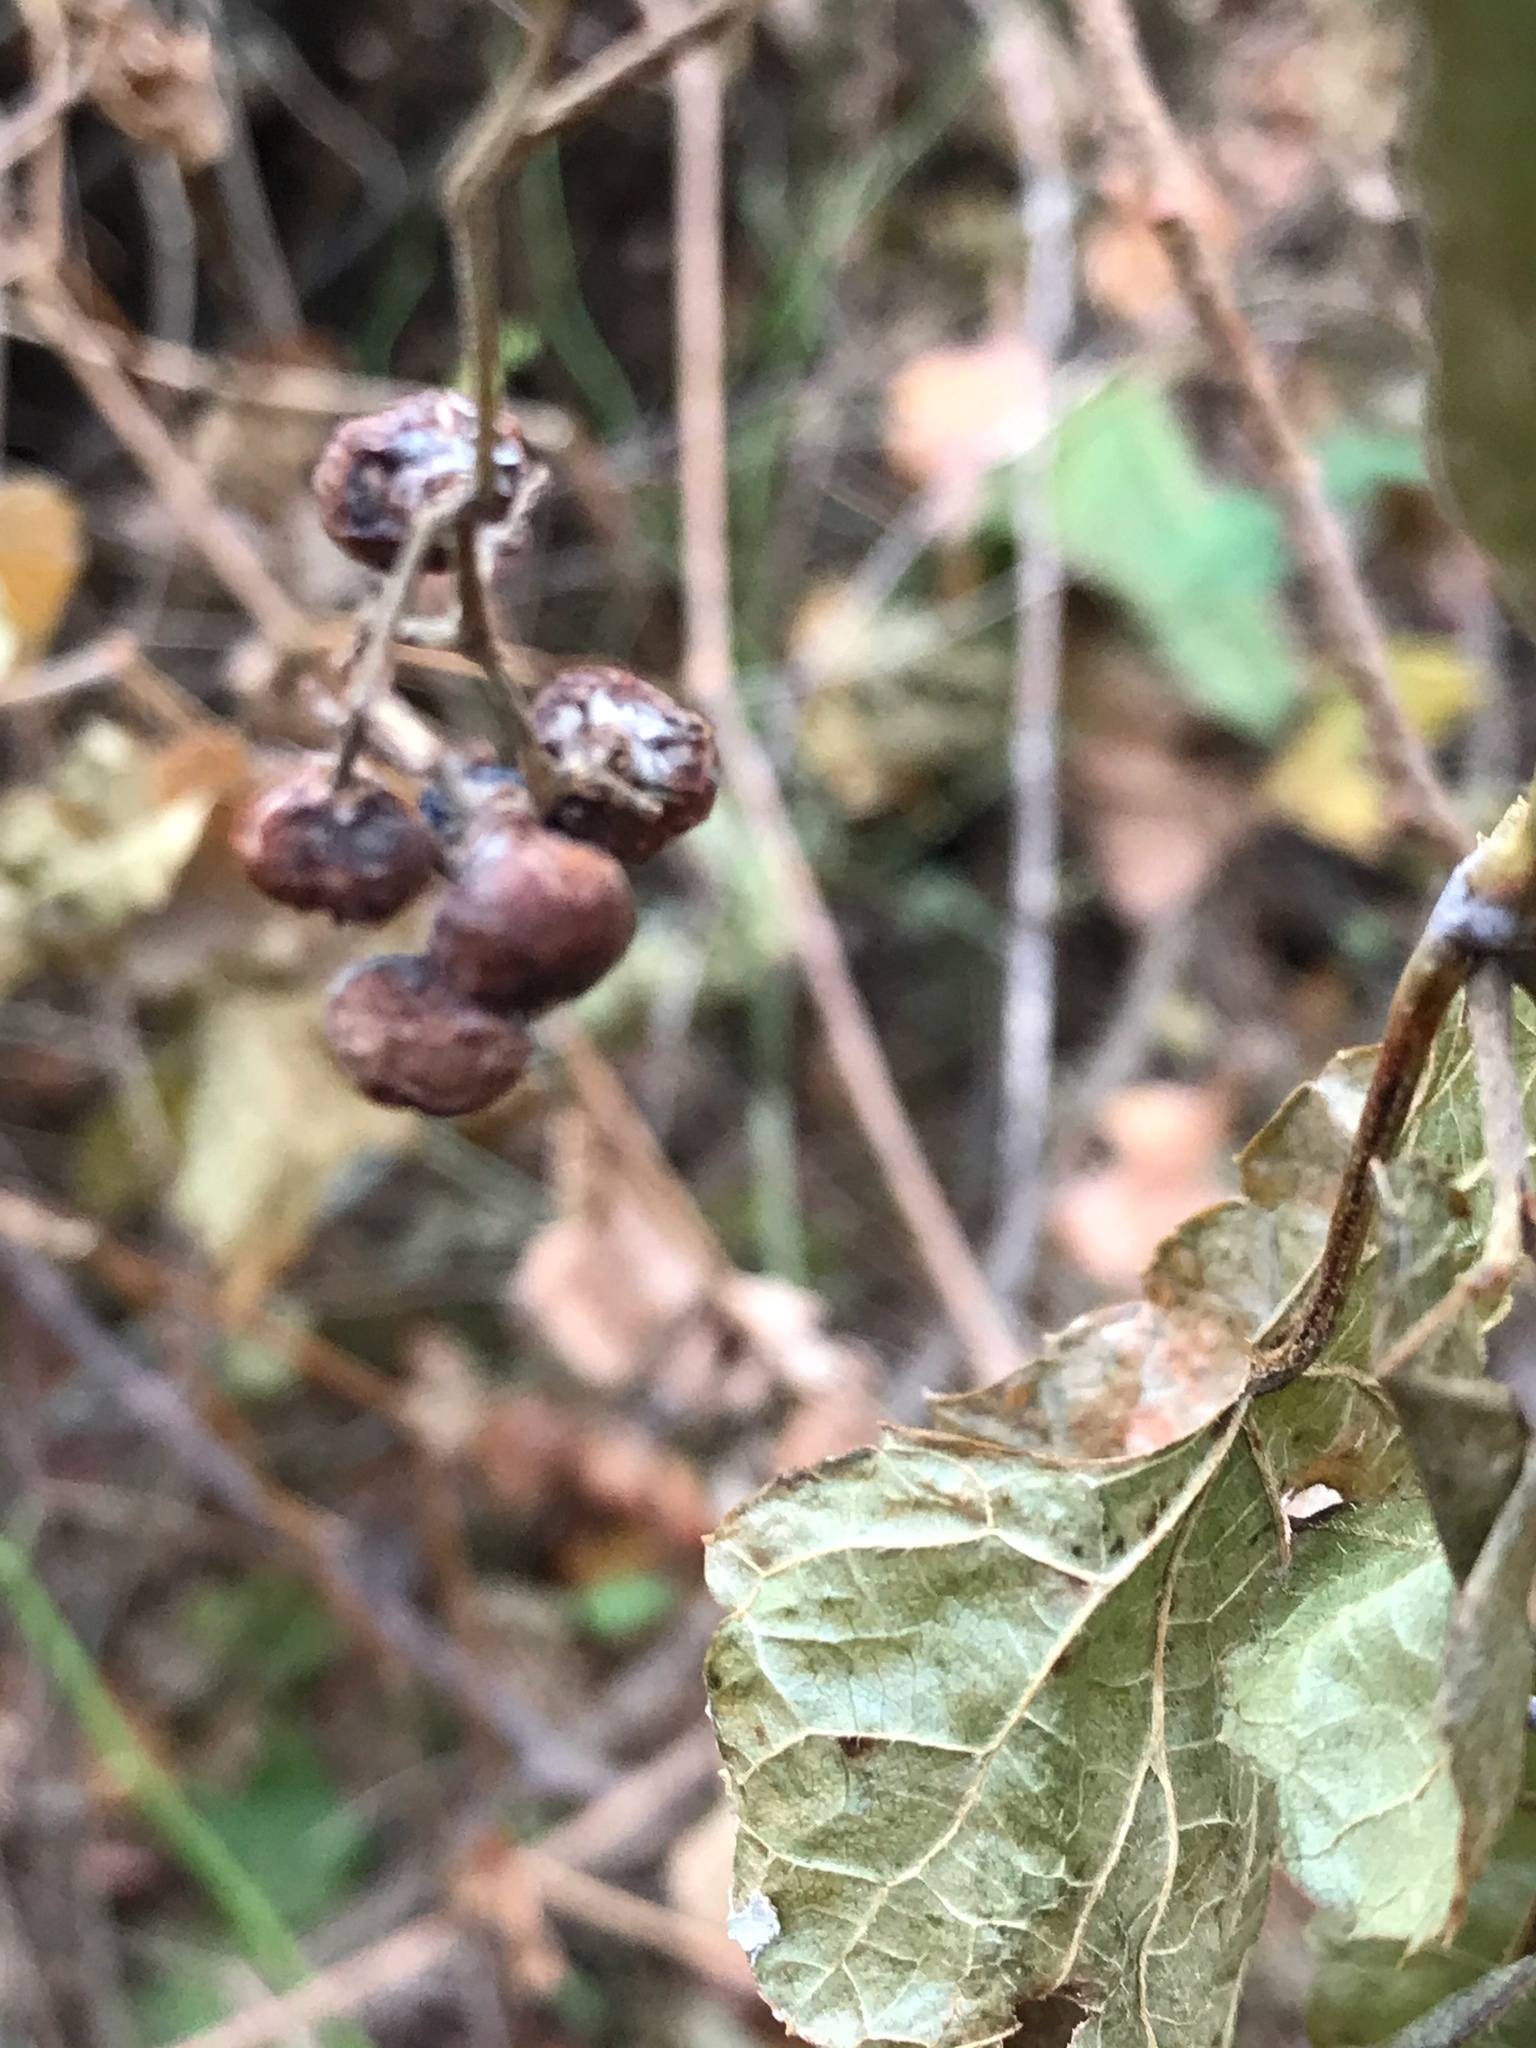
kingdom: Plantae
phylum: Tracheophyta
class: Magnoliopsida
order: Vitales
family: Vitaceae
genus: Ampelopsis
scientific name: Ampelopsis glandulosa
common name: Amur peppervine
